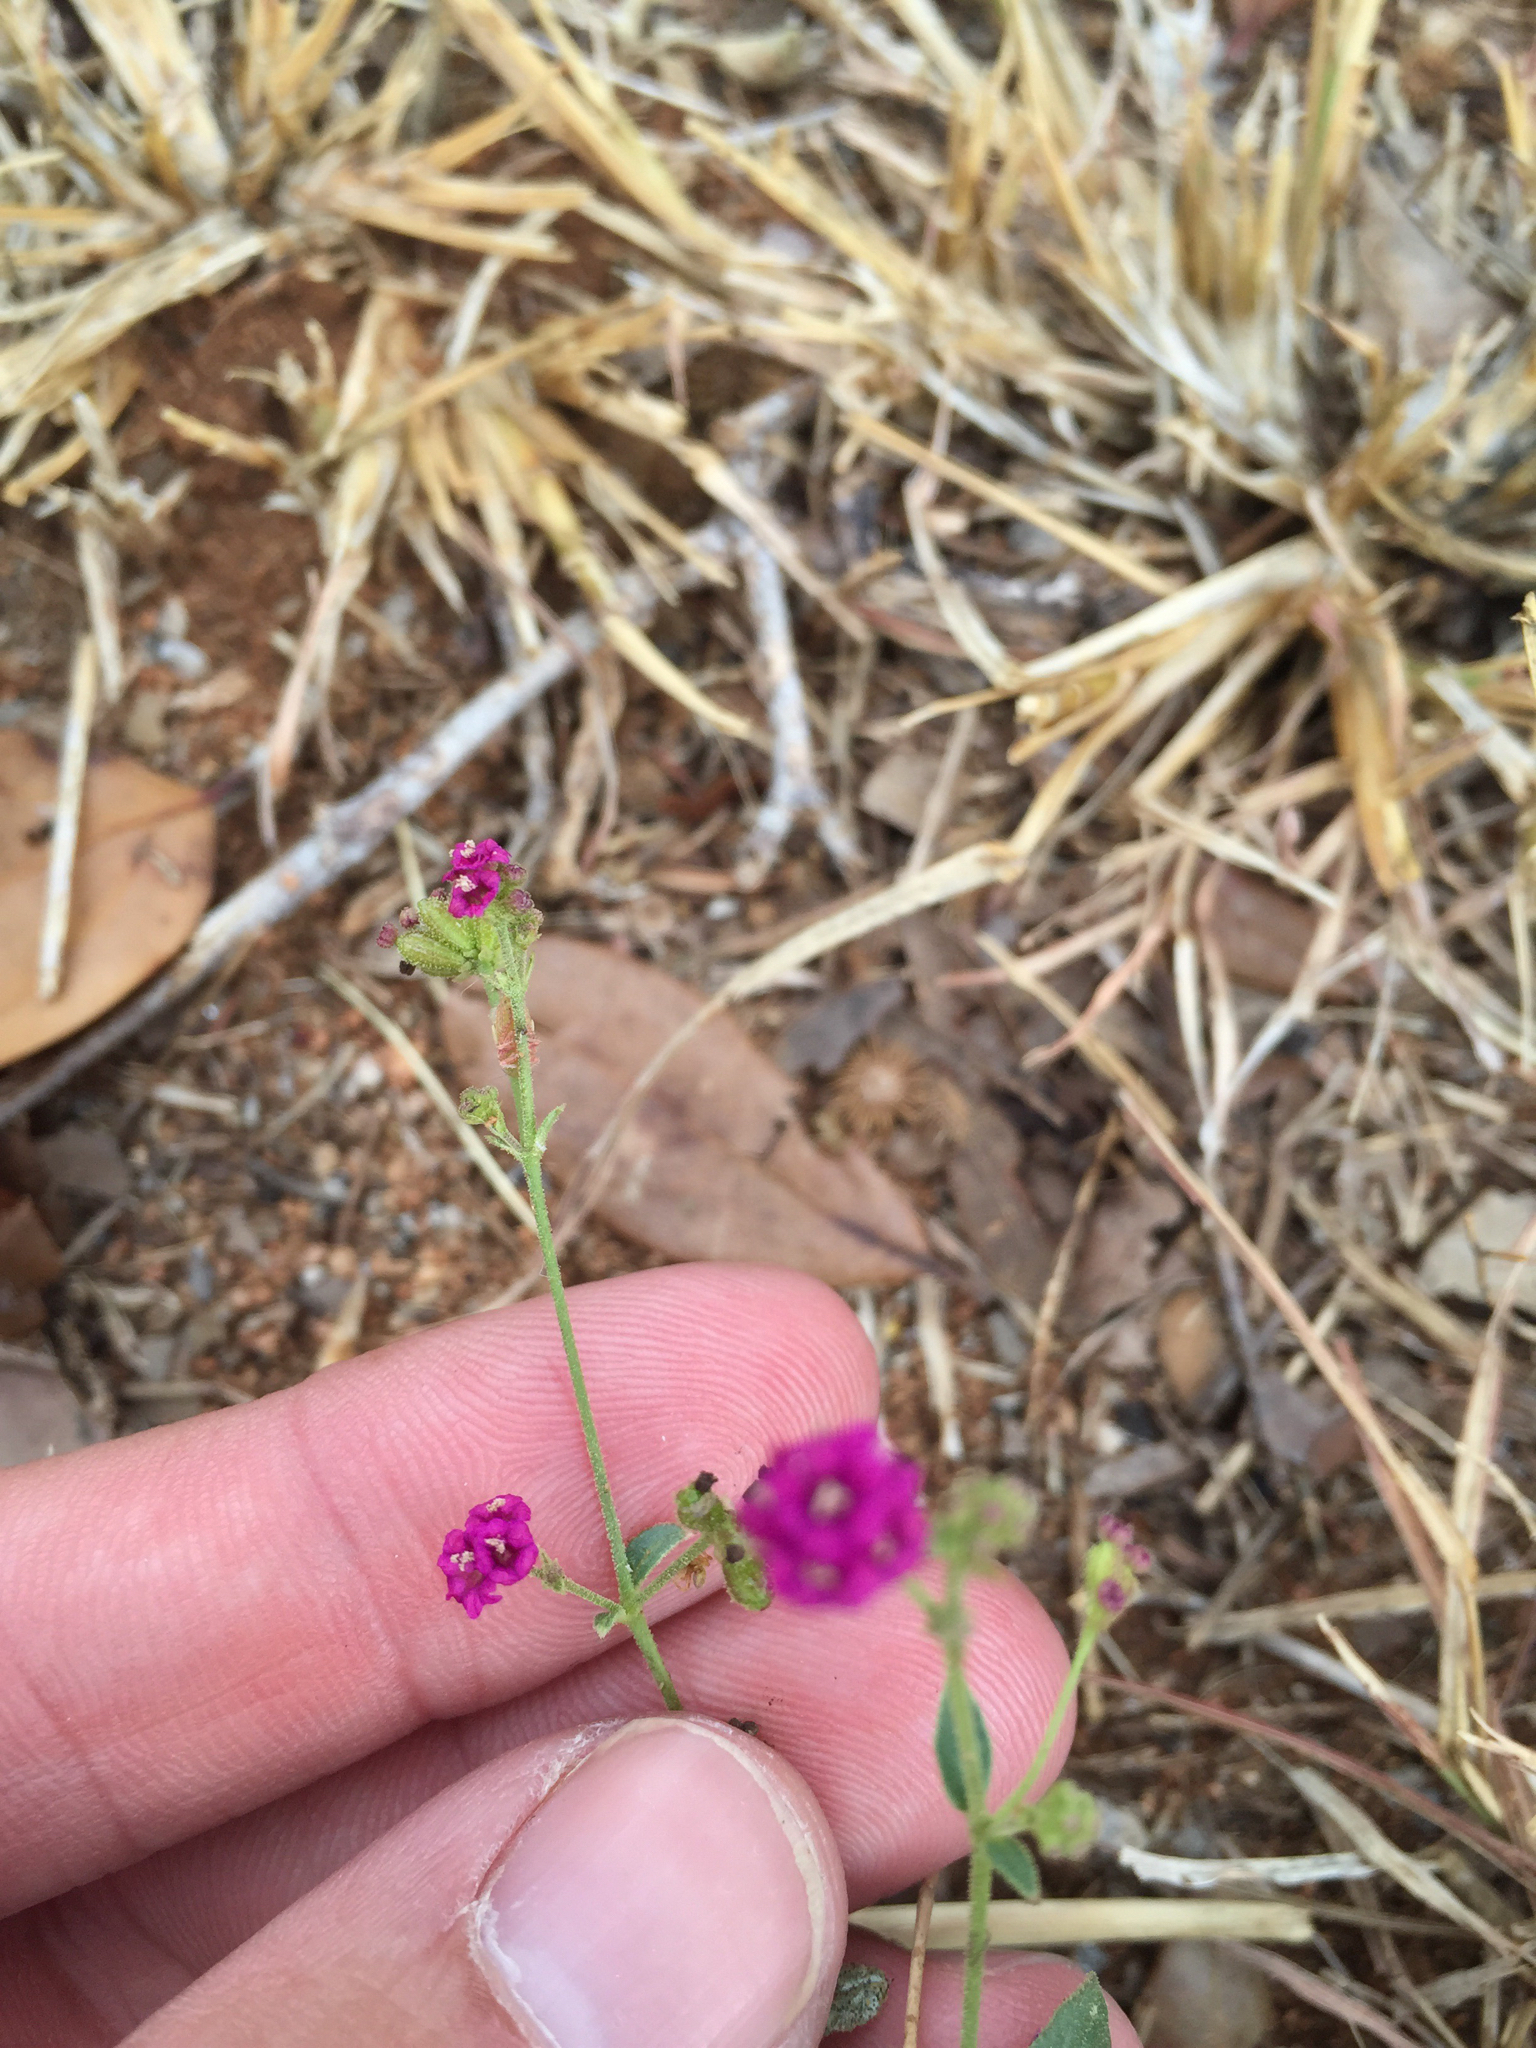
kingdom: Plantae
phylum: Tracheophyta
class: Magnoliopsida
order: Caryophyllales
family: Nyctaginaceae
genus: Boerhavia
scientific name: Boerhavia coccinea
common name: Scarlet spiderling
